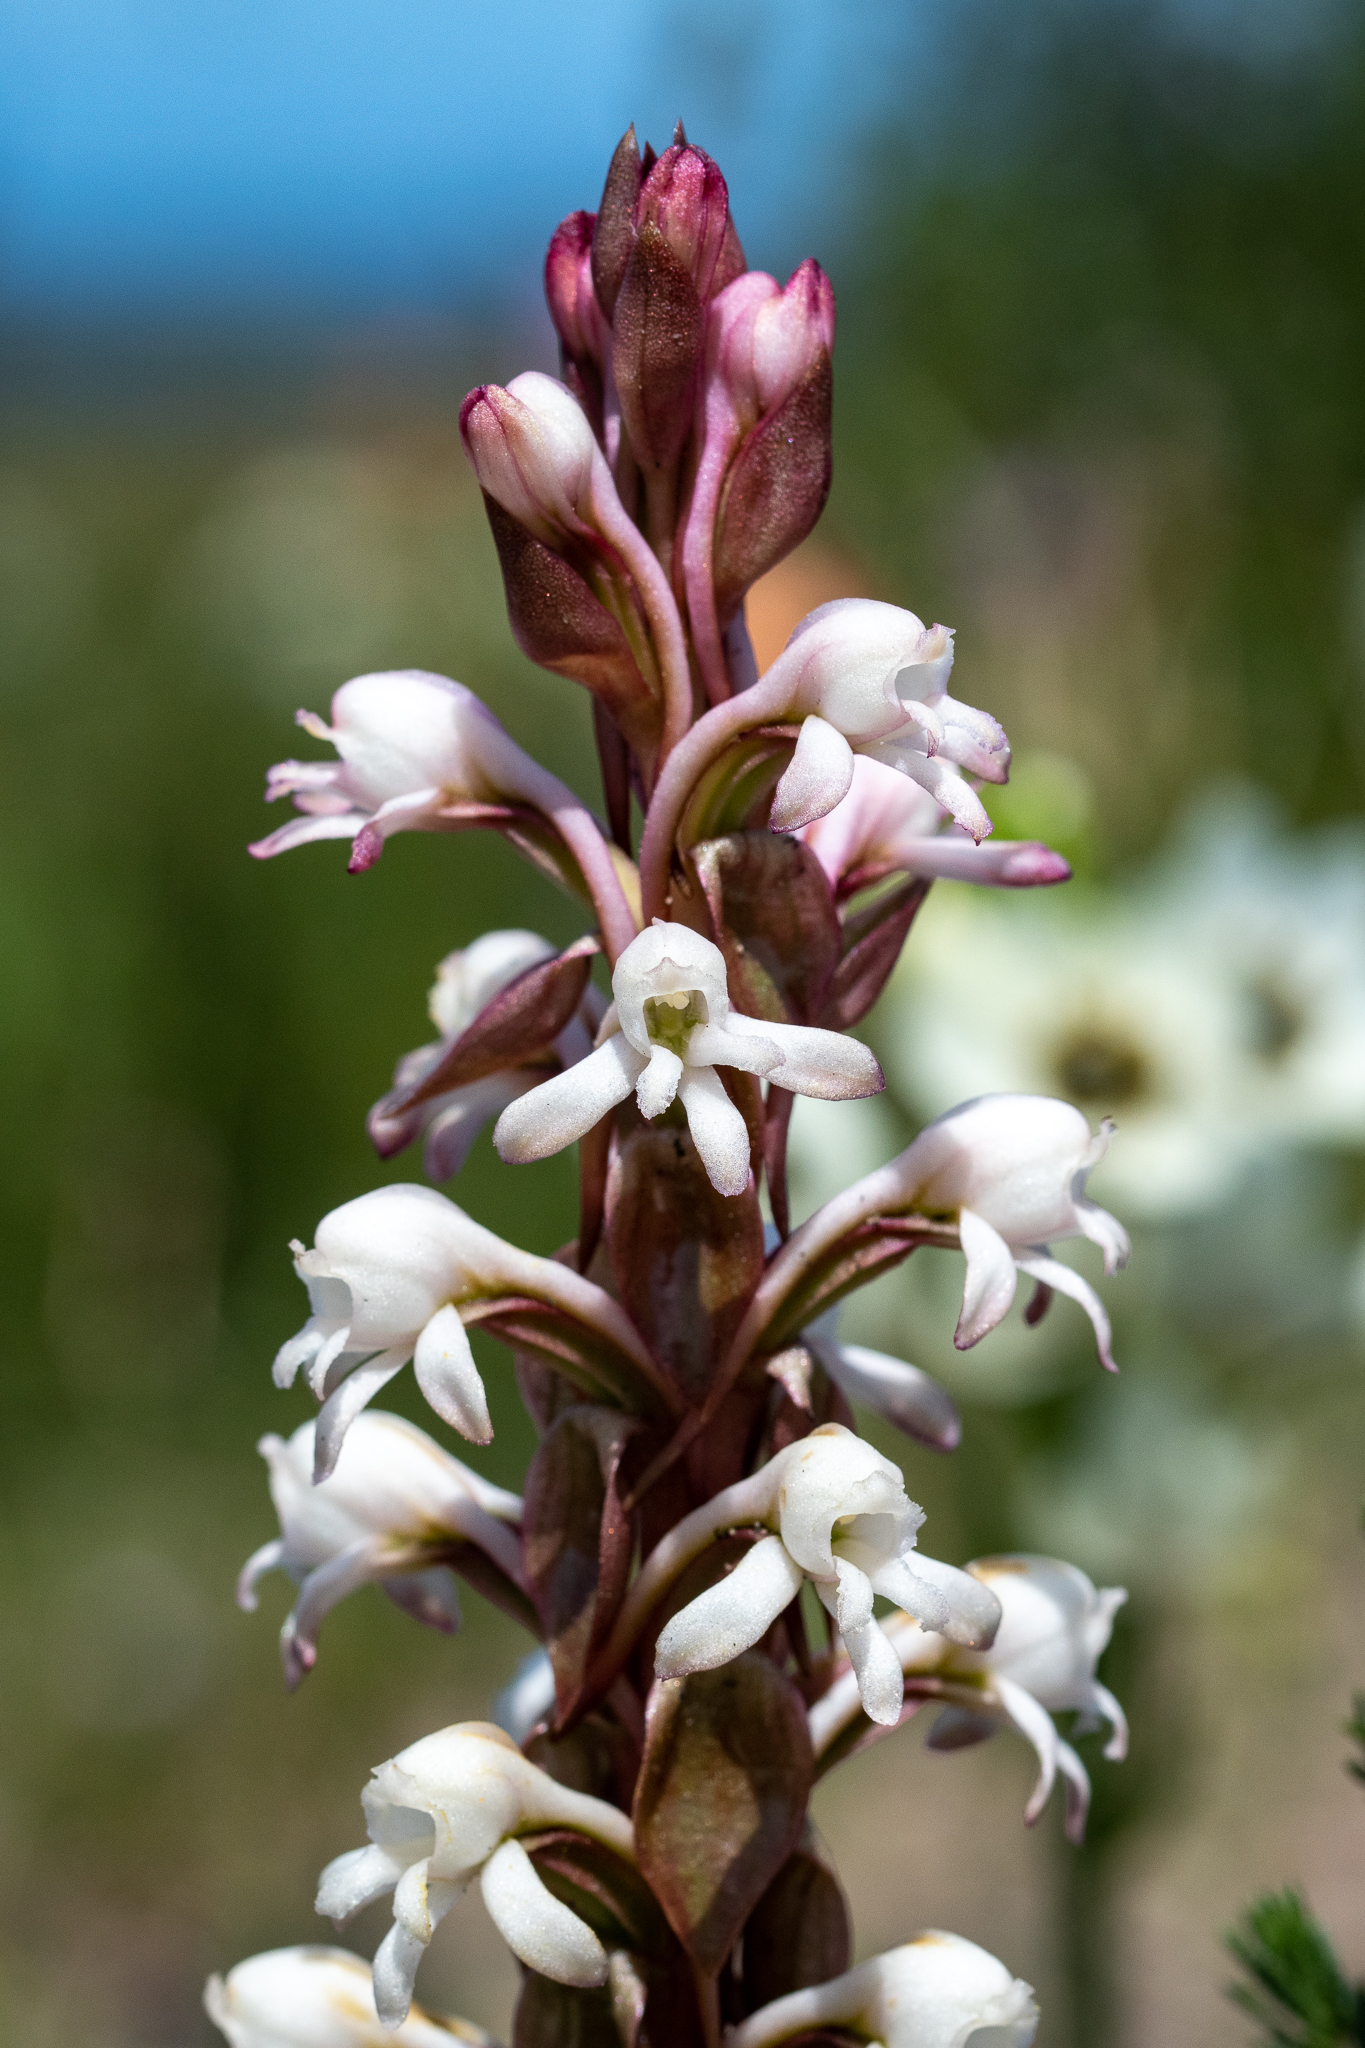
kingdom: Plantae
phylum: Tracheophyta
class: Liliopsida
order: Asparagales
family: Orchidaceae
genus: Satyrium
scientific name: Satyrium candidum
